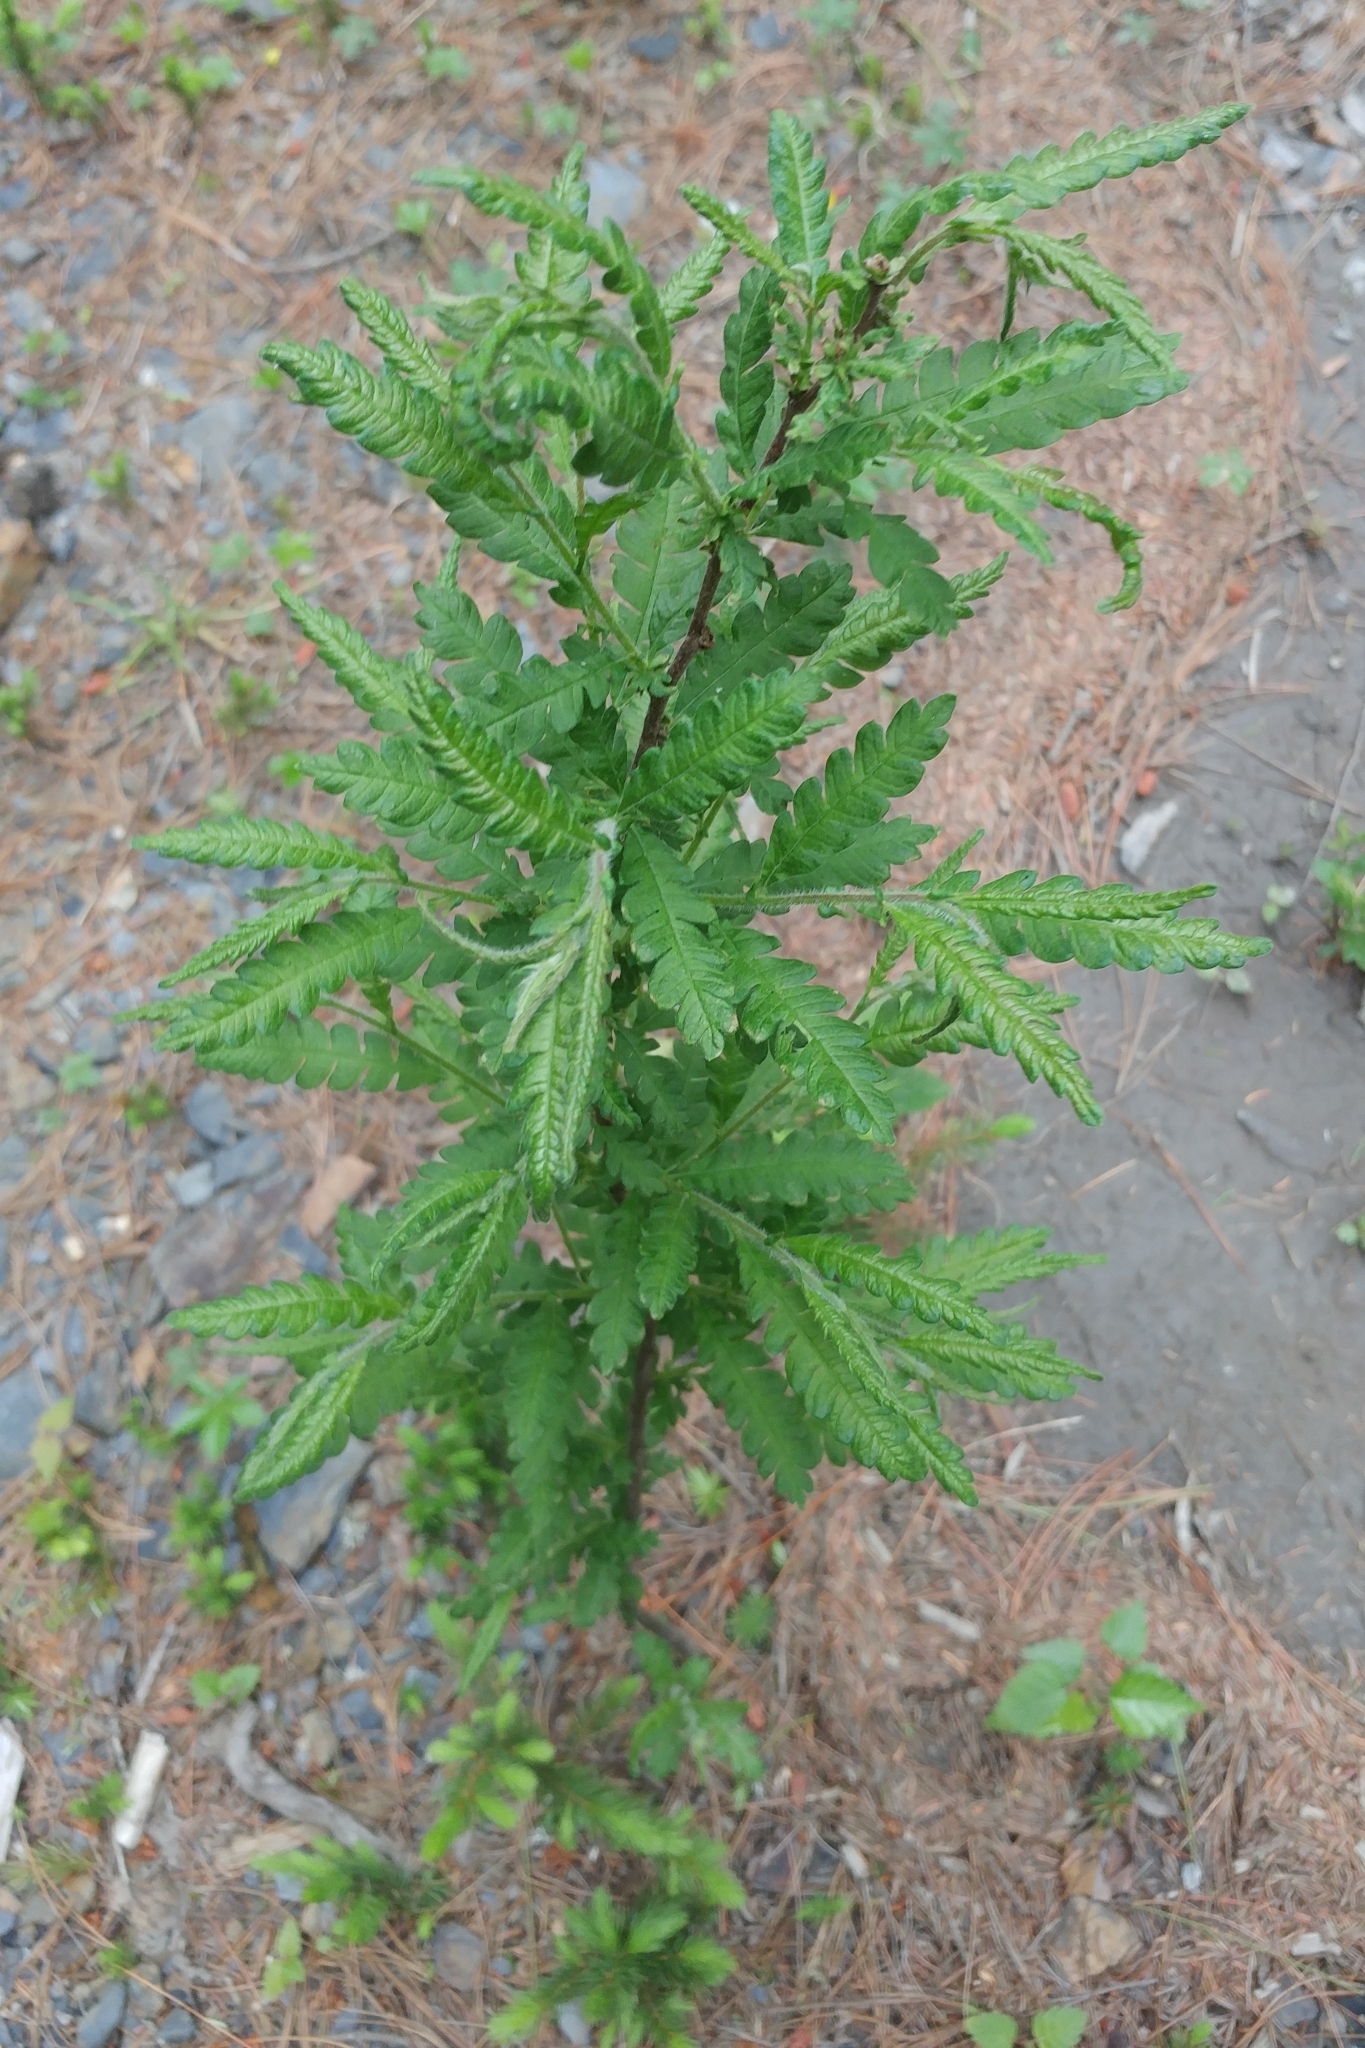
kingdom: Plantae
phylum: Tracheophyta
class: Magnoliopsida
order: Fagales
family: Myricaceae
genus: Comptonia
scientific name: Comptonia peregrina
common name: Sweet-fern
